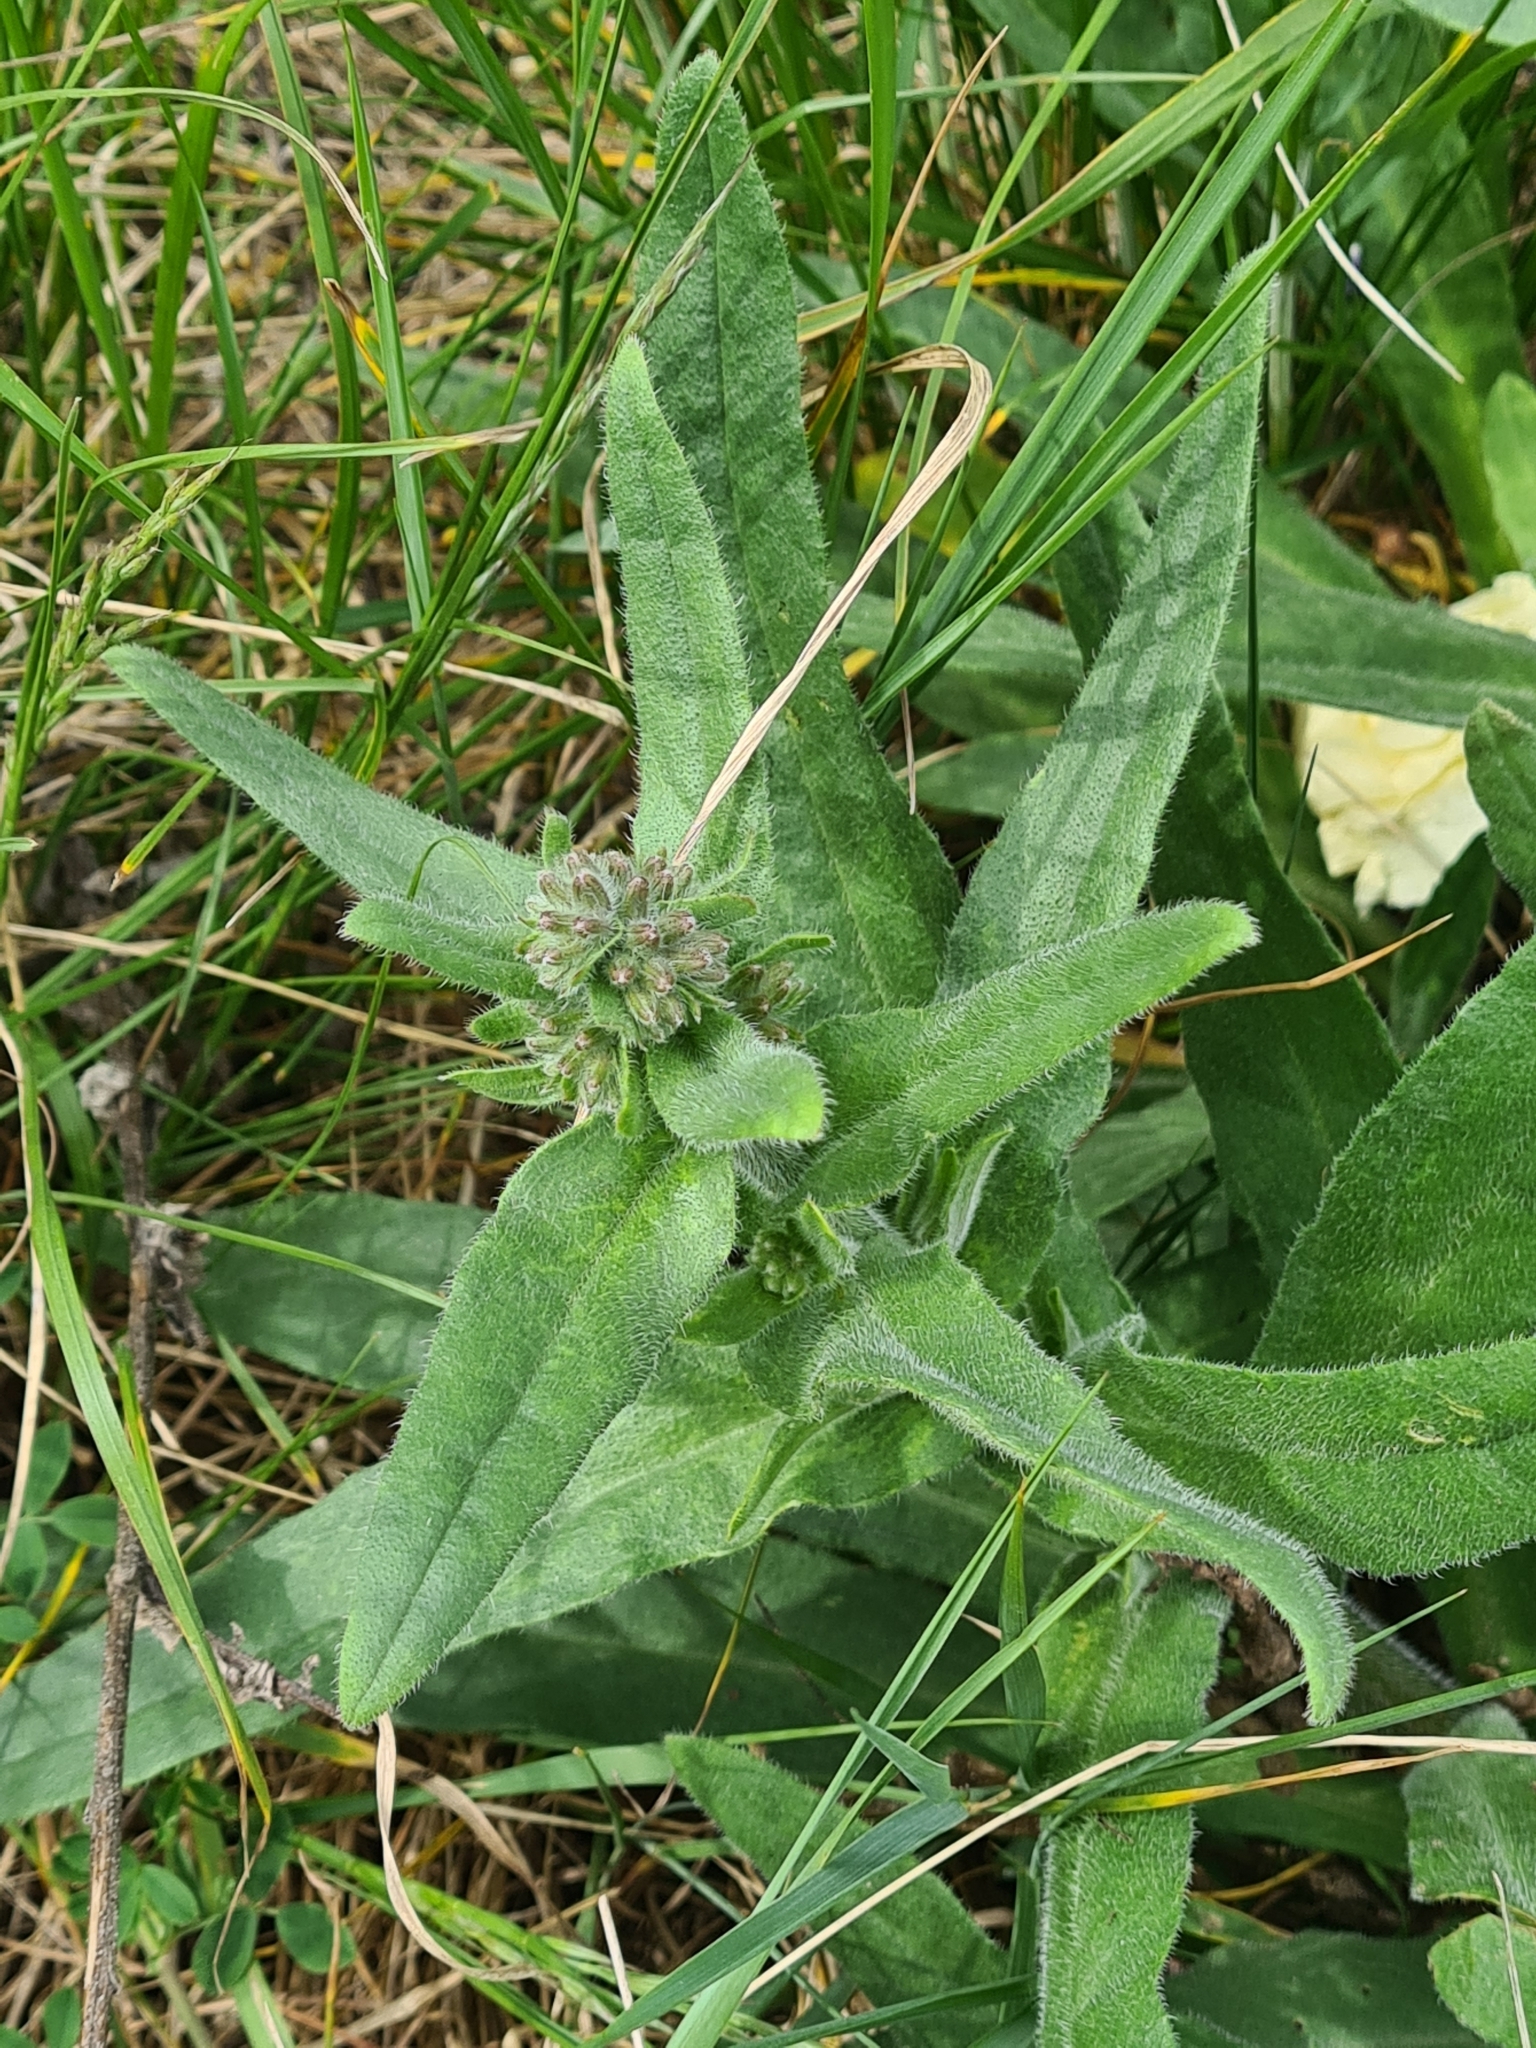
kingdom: Plantae
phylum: Tracheophyta
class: Magnoliopsida
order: Boraginales
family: Boraginaceae
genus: Anchusa
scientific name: Anchusa officinalis
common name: Alkanet
